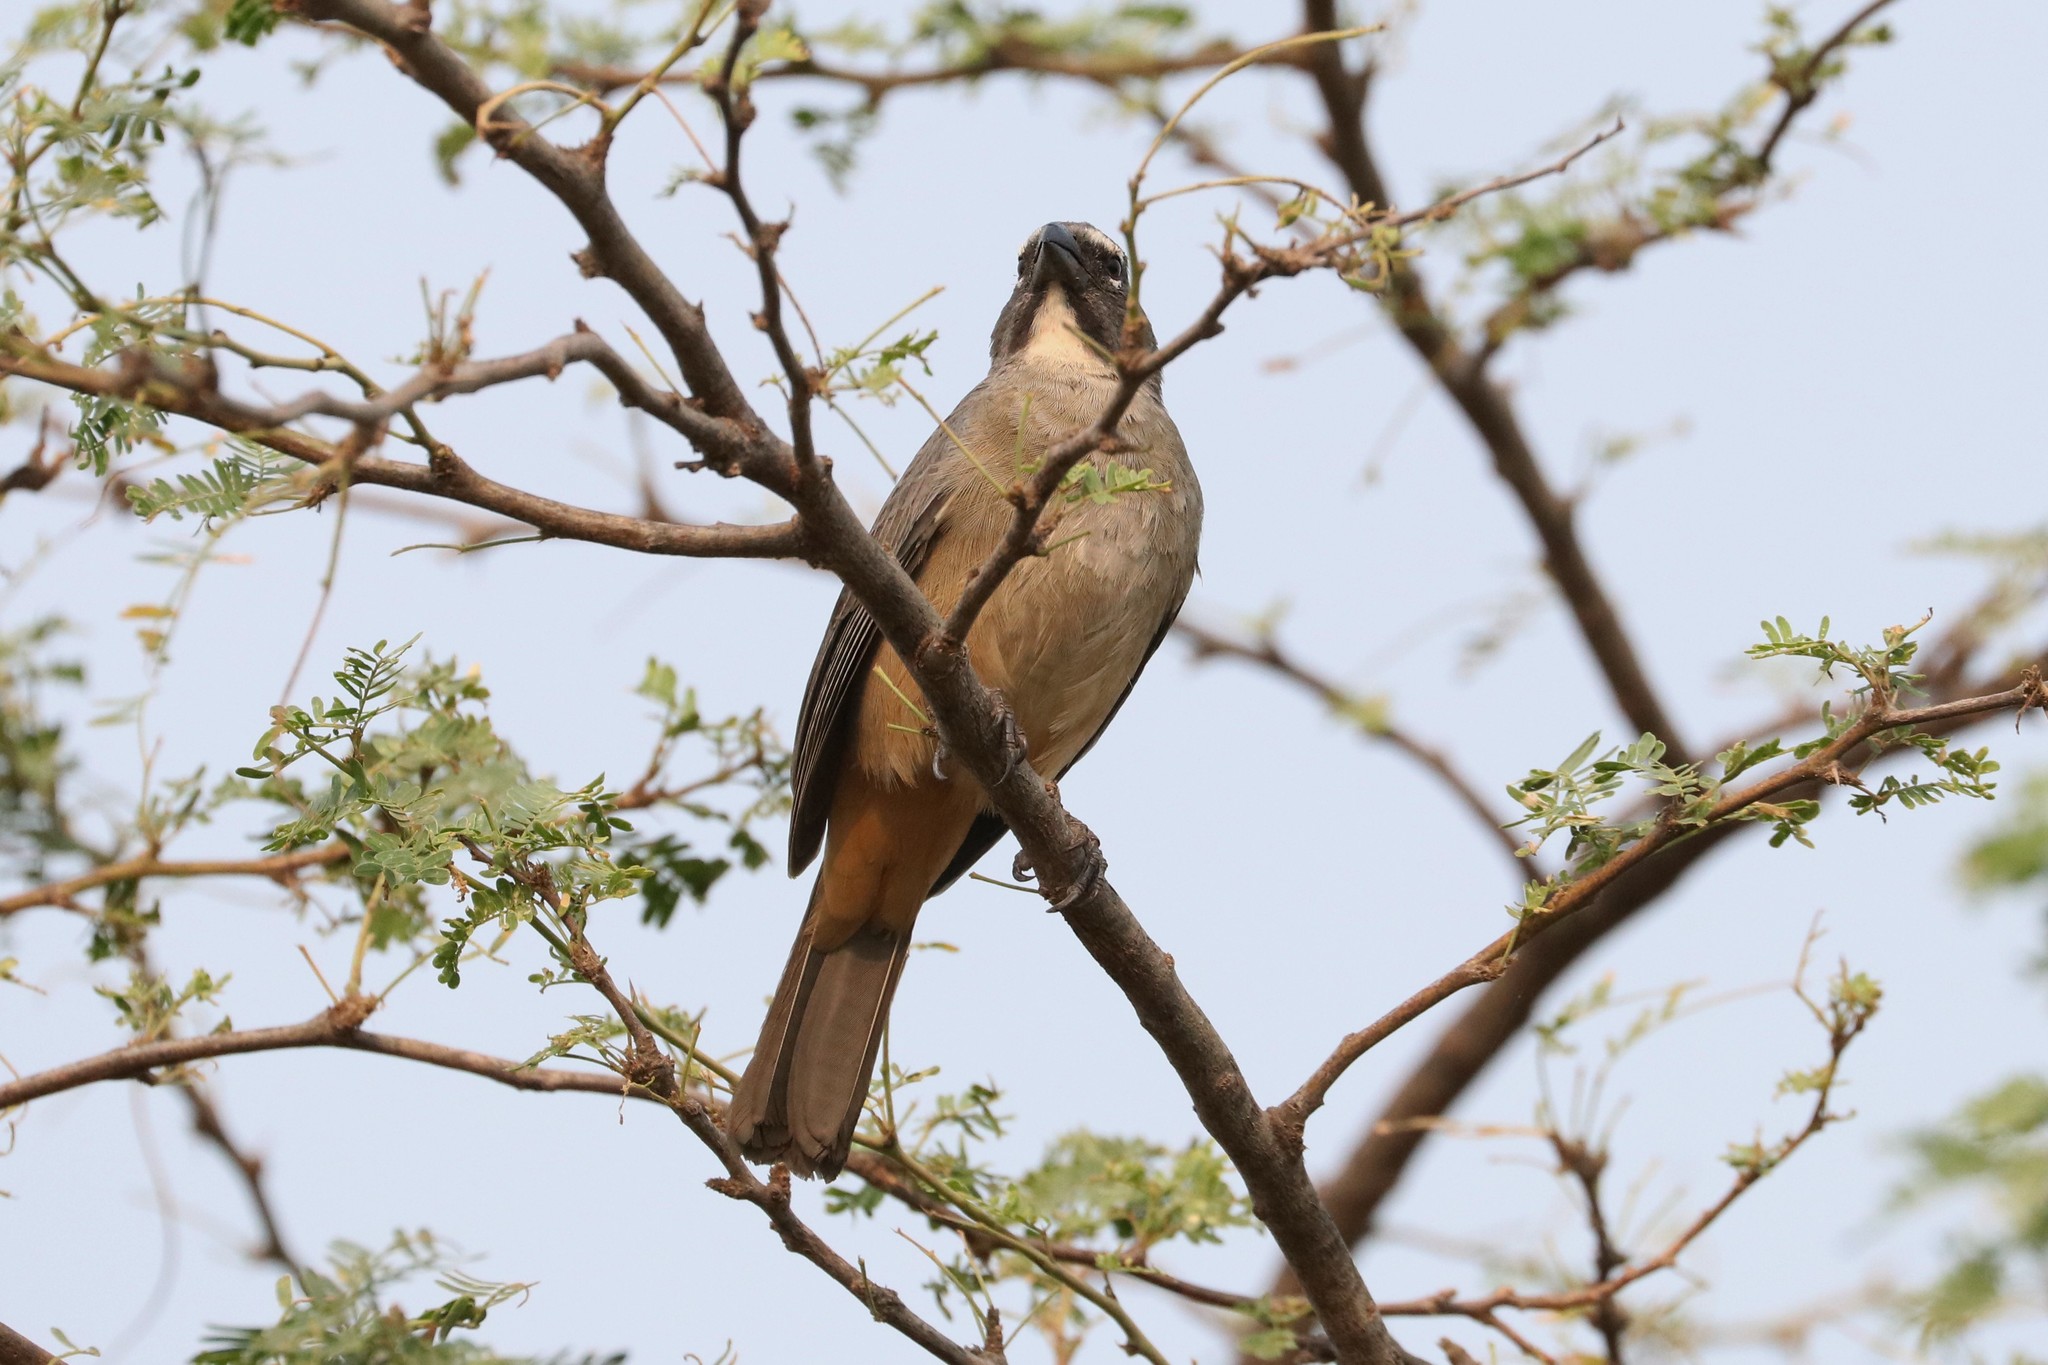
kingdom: Animalia
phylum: Chordata
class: Aves
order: Passeriformes
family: Thraupidae
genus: Saltator
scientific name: Saltator olivascens
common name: Caribbean grey saltator
